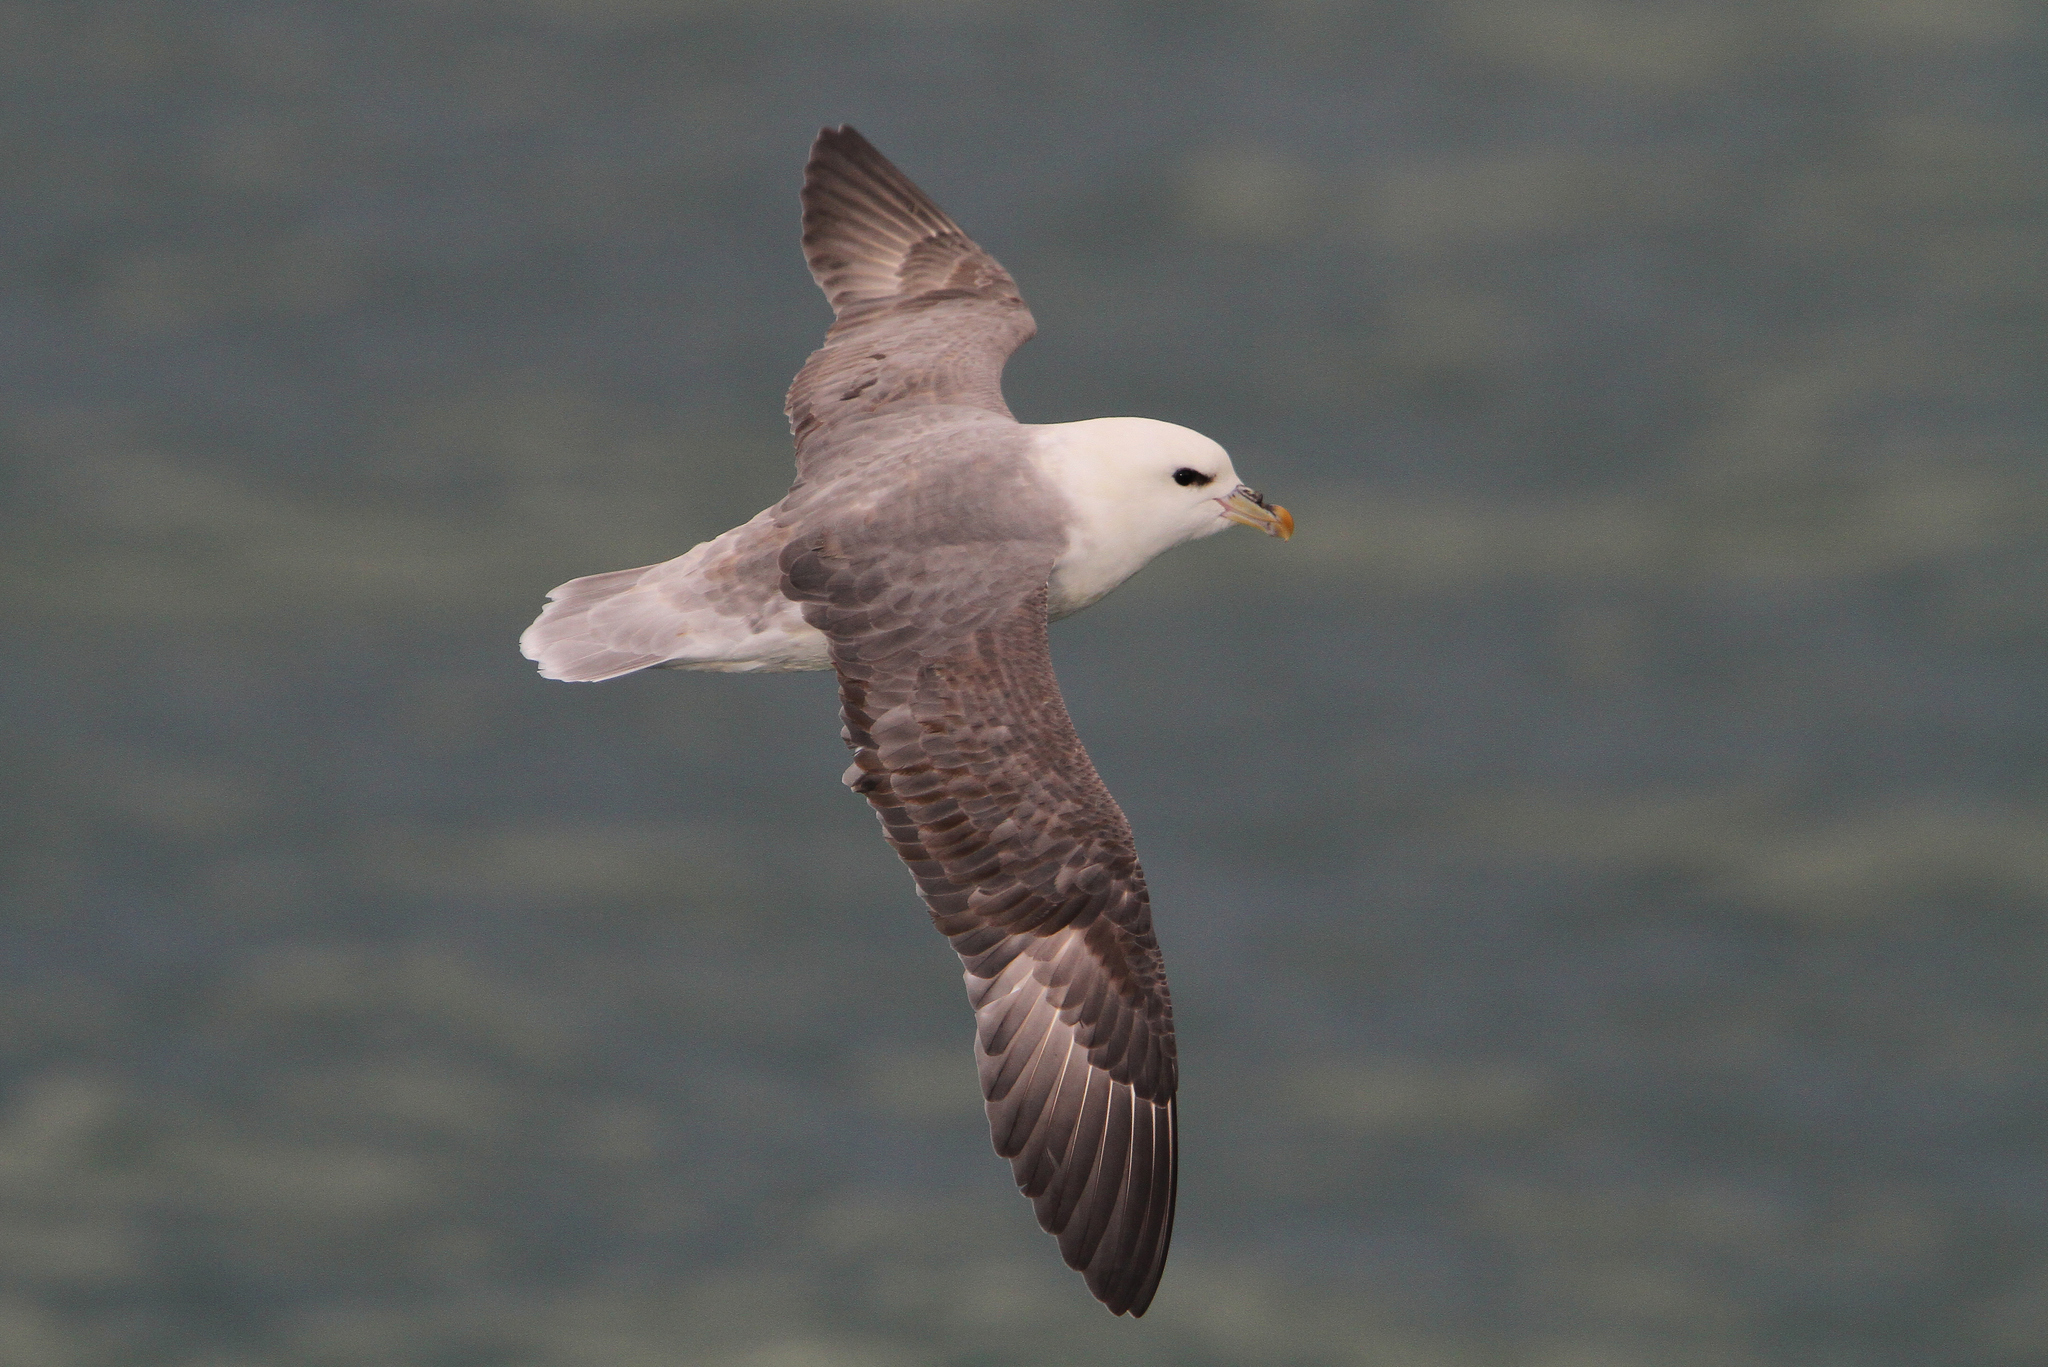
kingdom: Animalia
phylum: Chordata
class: Aves
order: Procellariiformes
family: Procellariidae
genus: Fulmarus
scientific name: Fulmarus glacialis
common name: Northern fulmar
